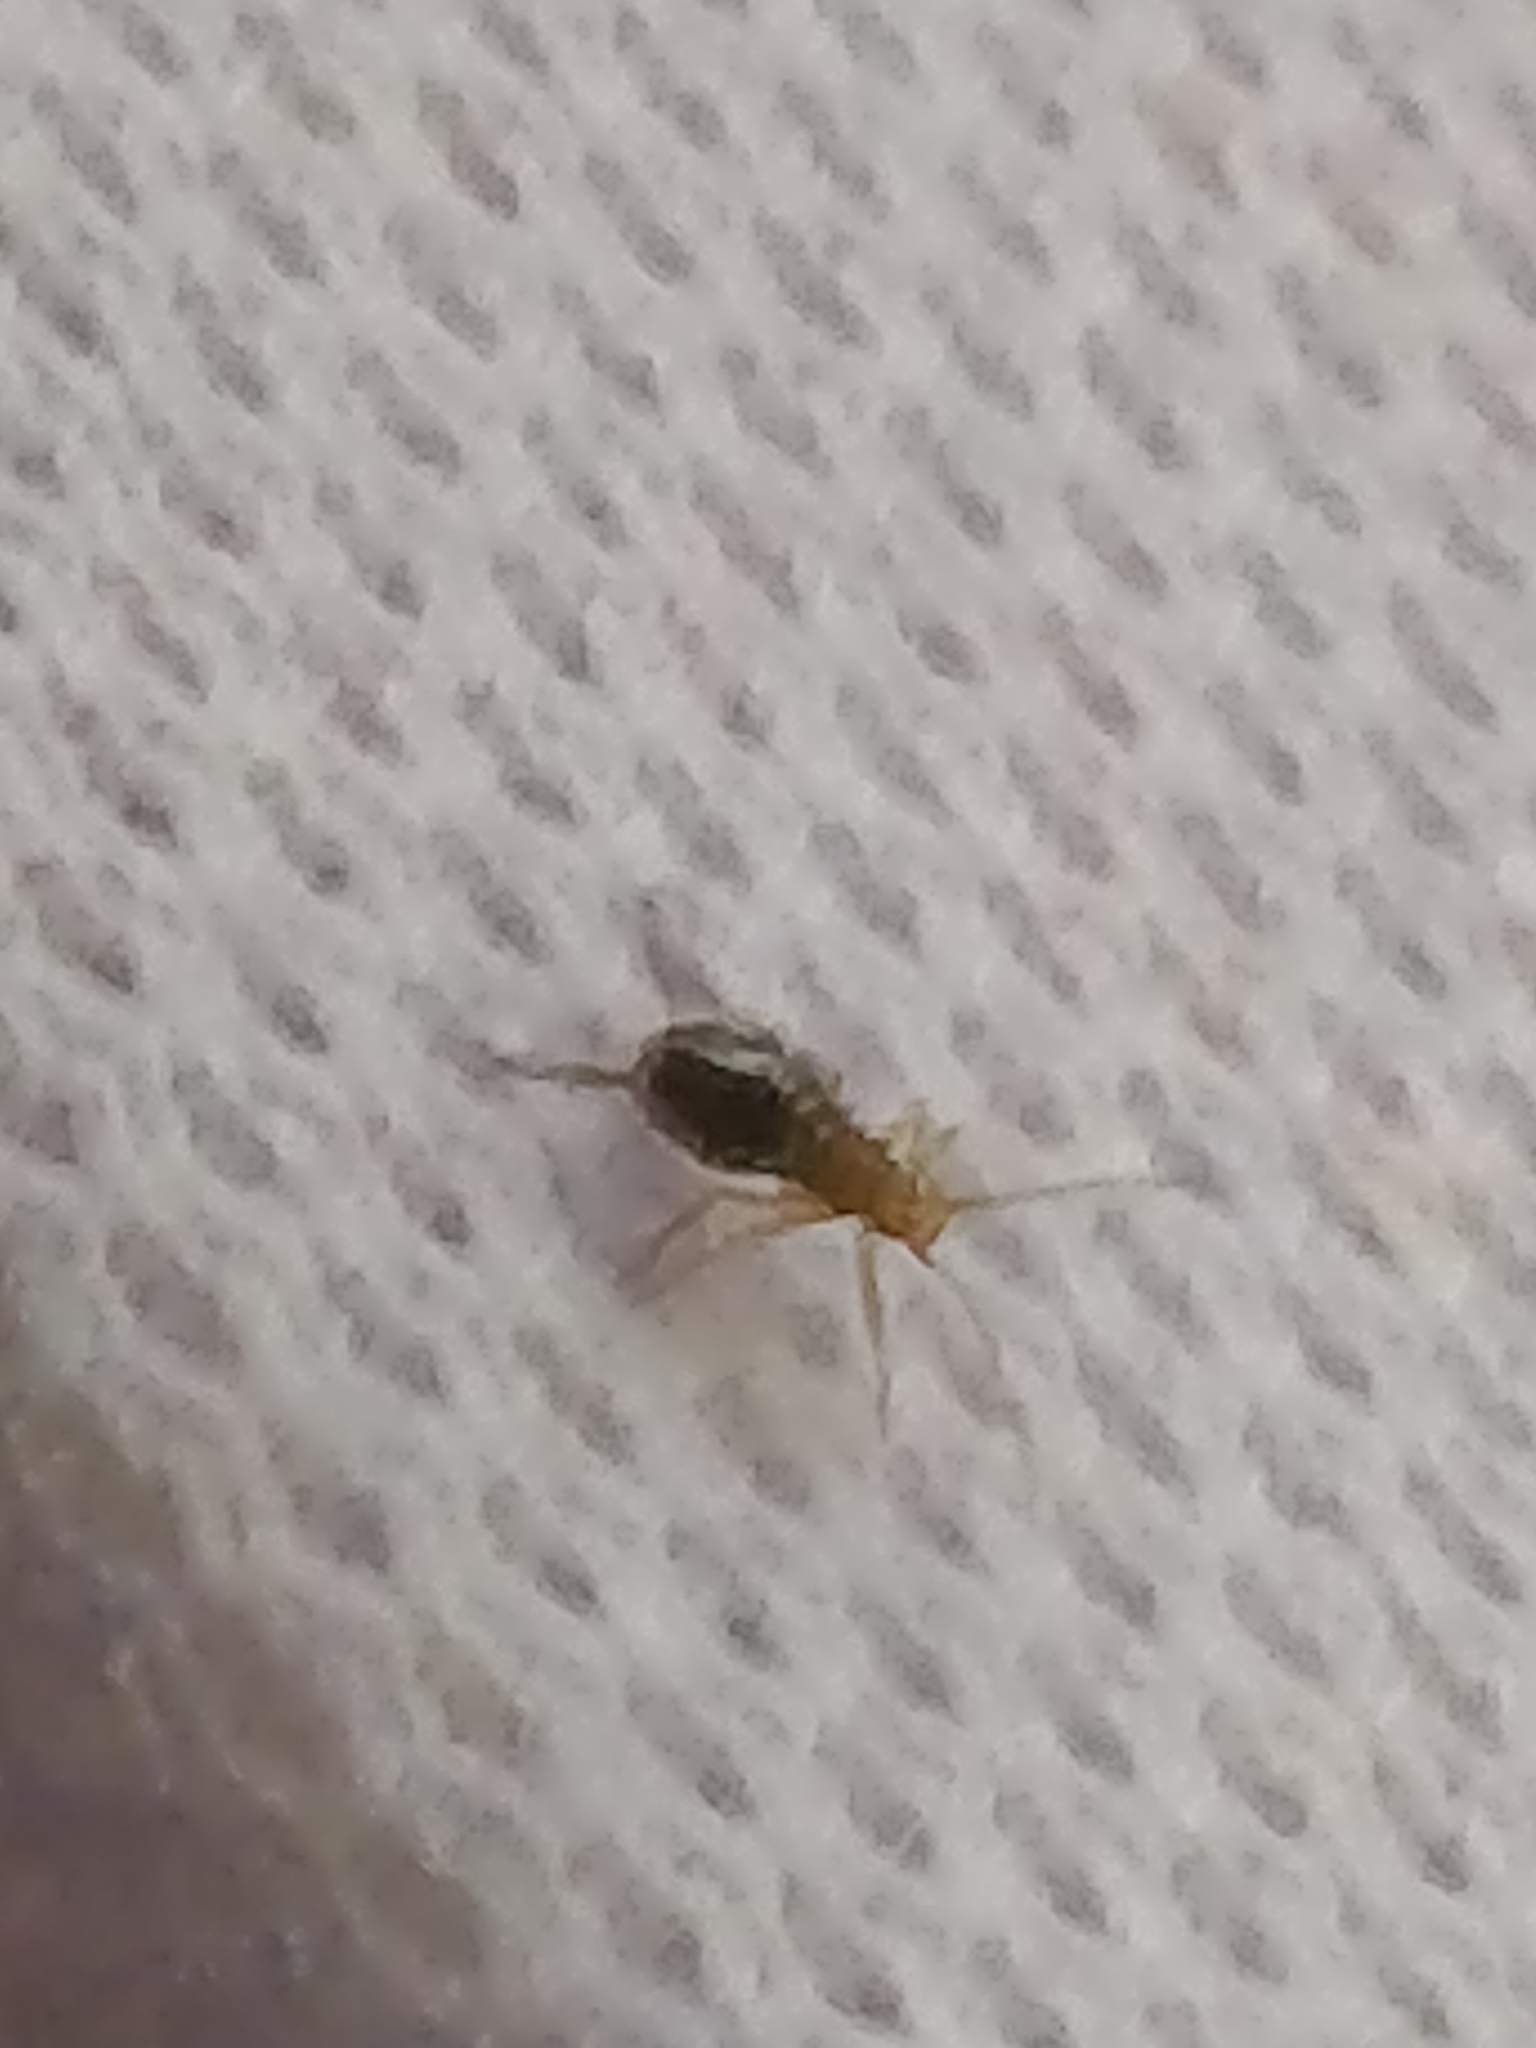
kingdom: Animalia
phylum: Arthropoda
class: Insecta
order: Hemiptera
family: Aphididae
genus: Greenidea
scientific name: Greenidea ficicola
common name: Aphid
